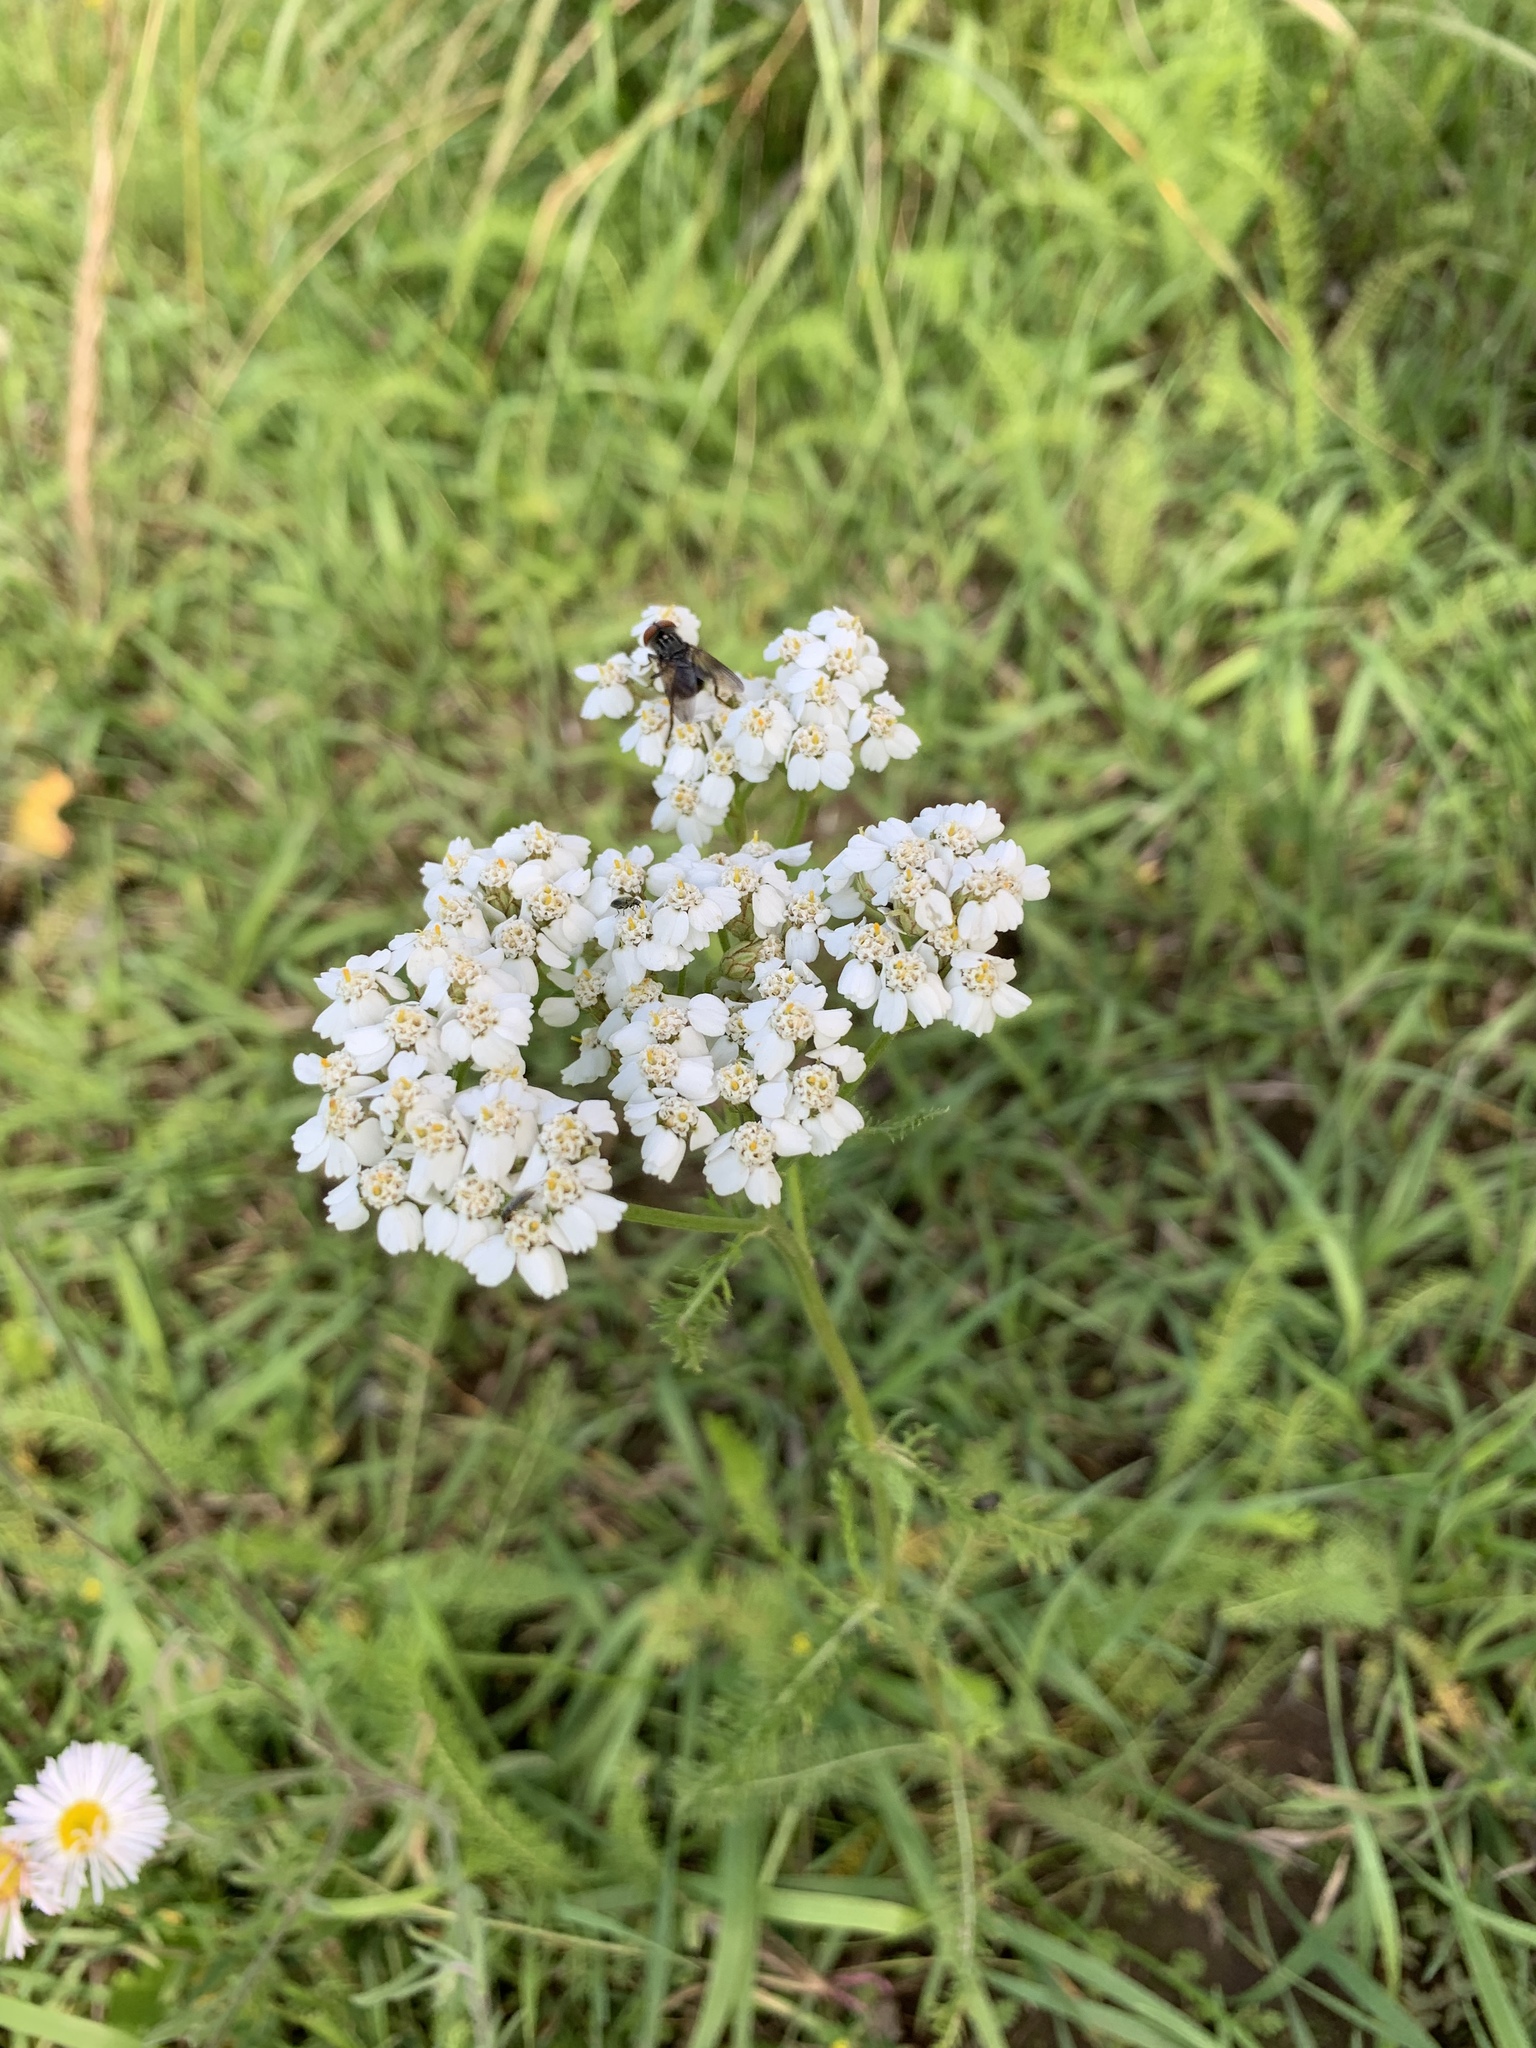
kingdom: Plantae
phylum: Tracheophyta
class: Magnoliopsida
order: Asterales
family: Asteraceae
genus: Achillea
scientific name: Achillea millefolium
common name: Yarrow
